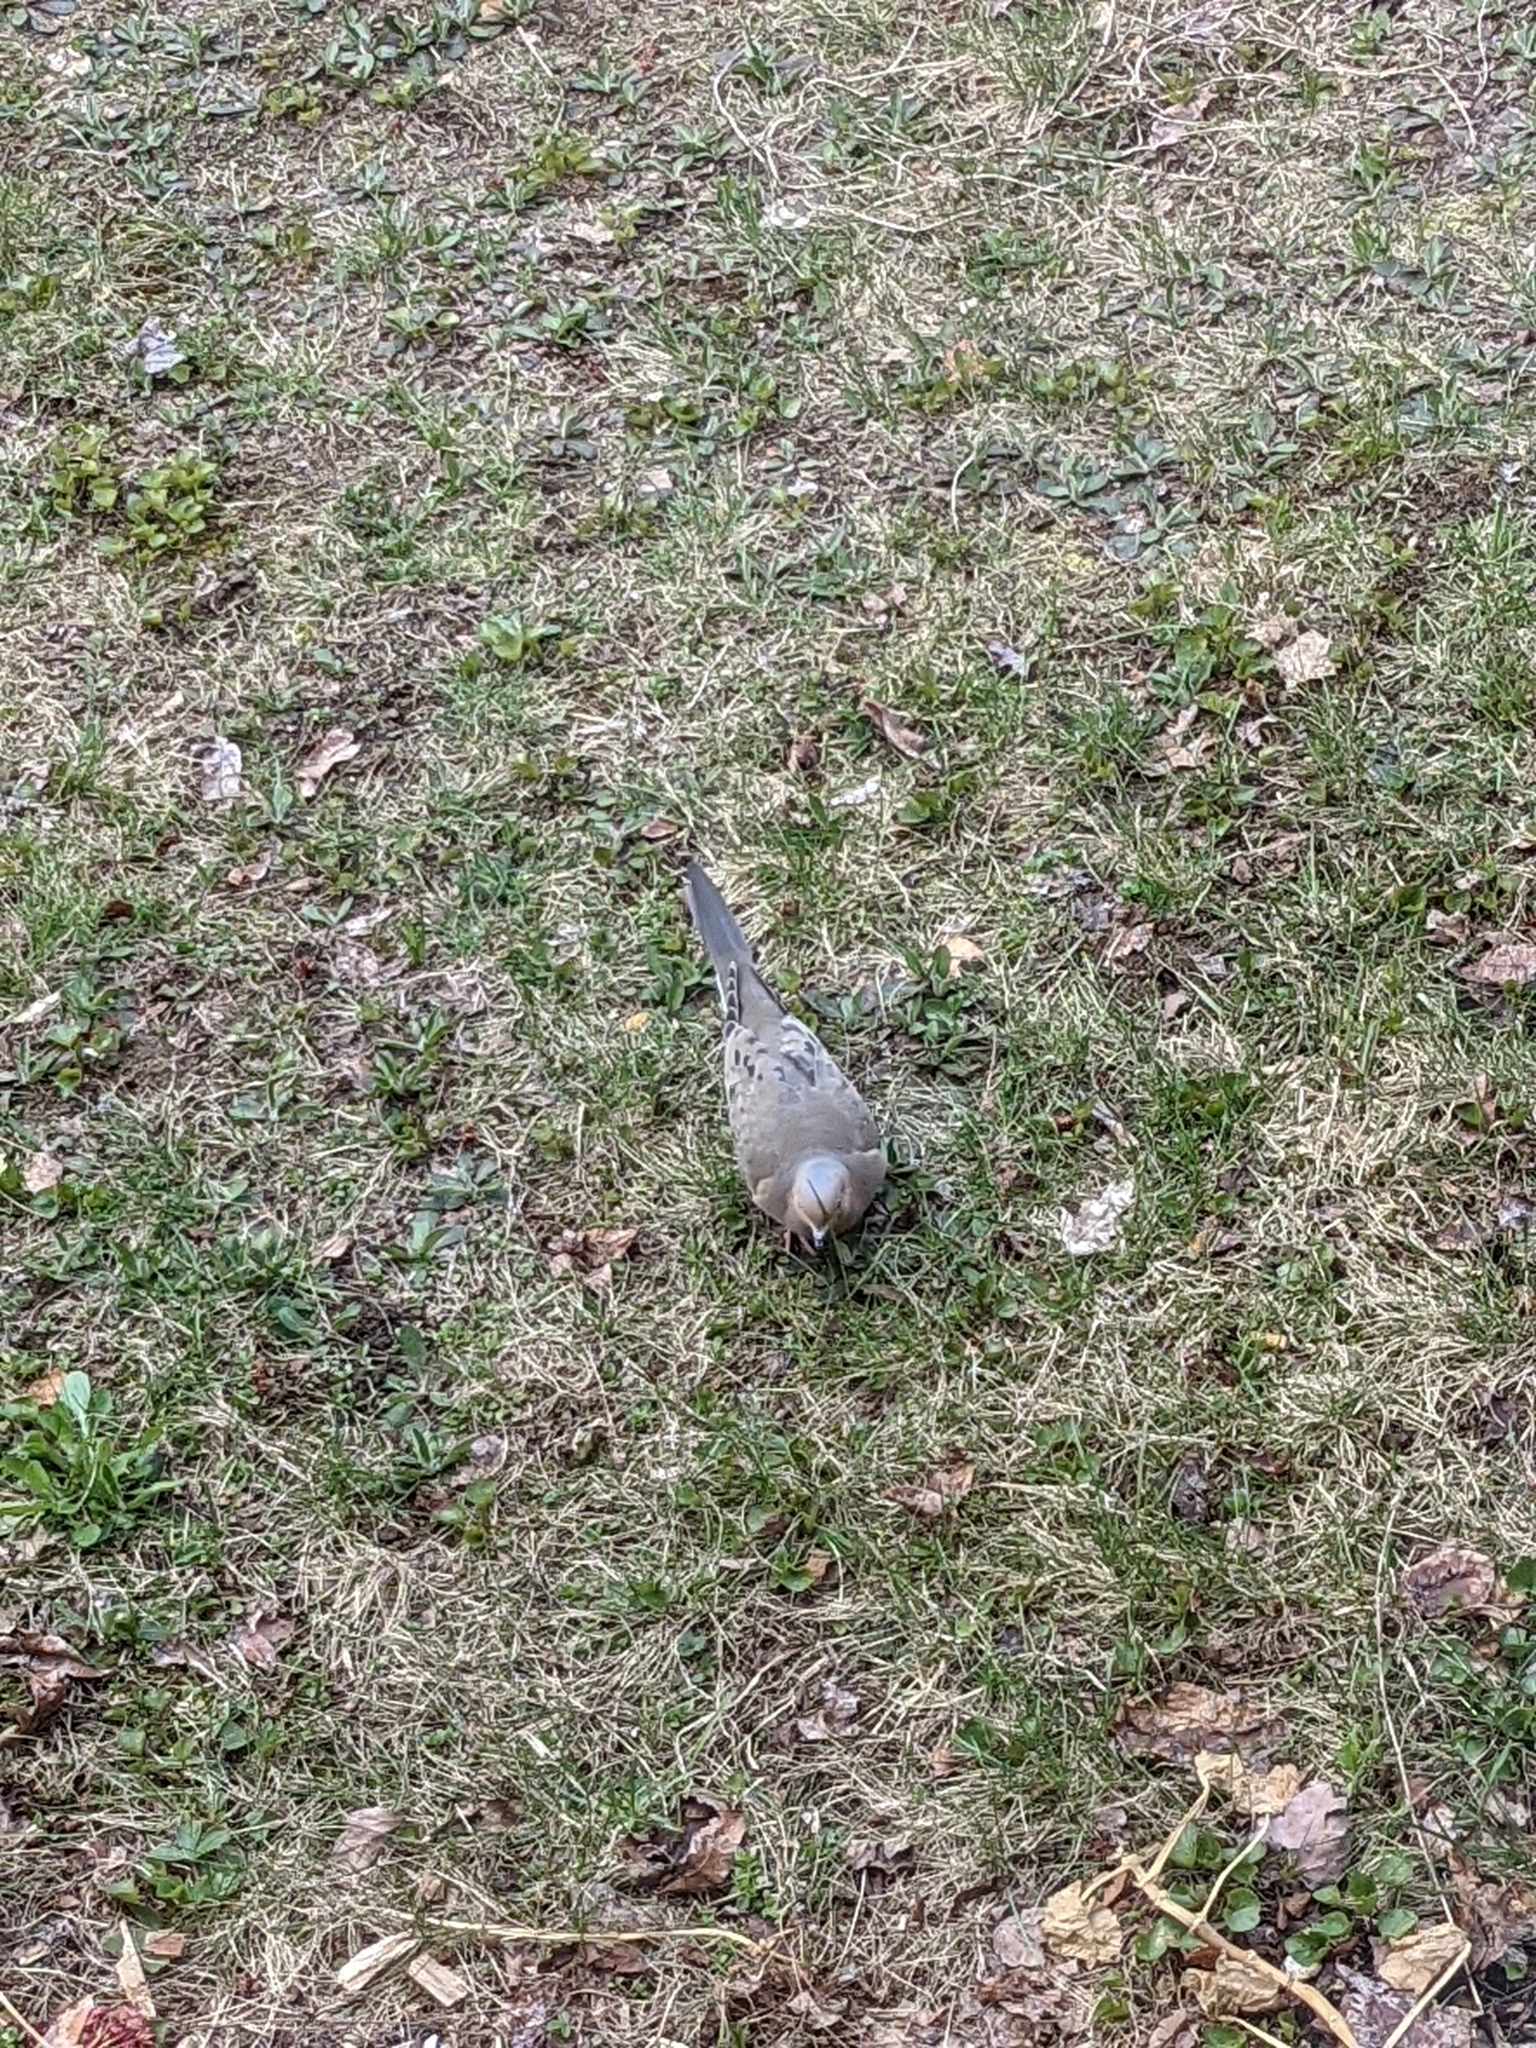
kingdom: Animalia
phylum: Chordata
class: Aves
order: Columbiformes
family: Columbidae
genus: Zenaida
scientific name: Zenaida macroura
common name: Mourning dove
